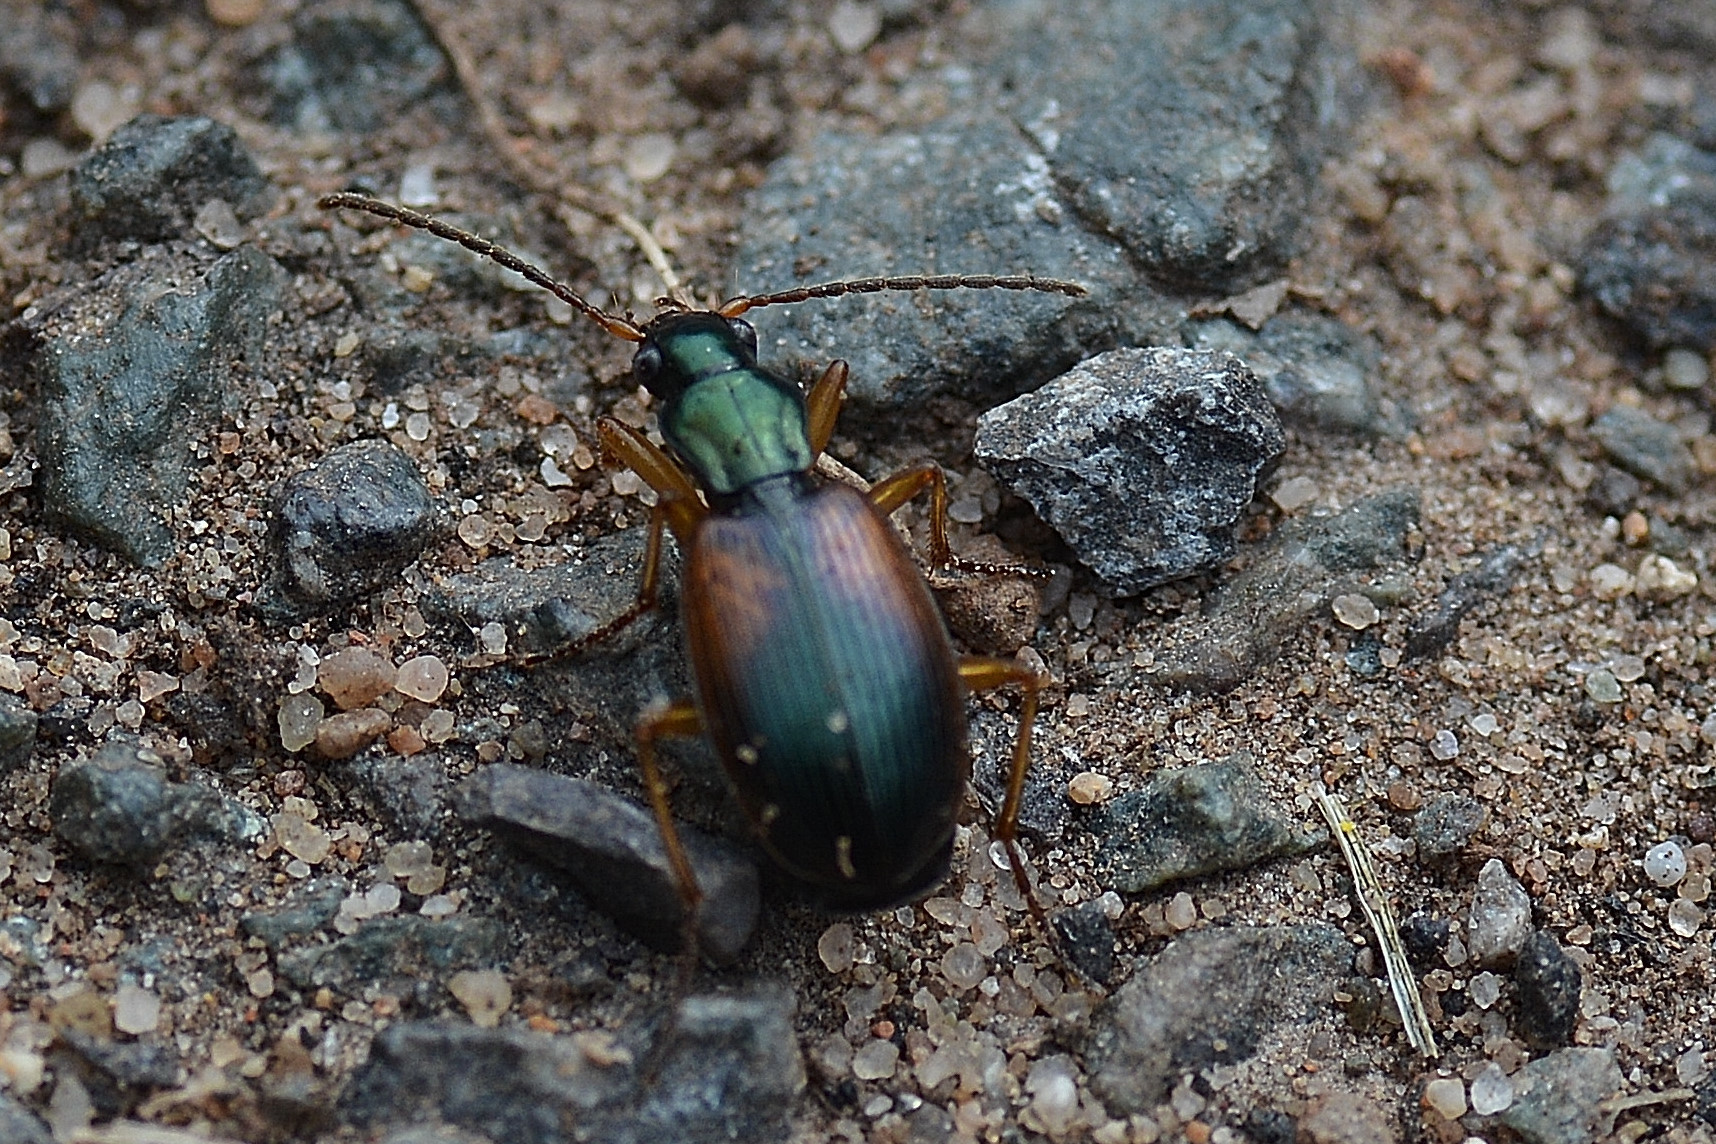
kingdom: Animalia
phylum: Arthropoda
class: Insecta
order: Coleoptera
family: Carabidae
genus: Anchomenus
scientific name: Anchomenus dorsalis
